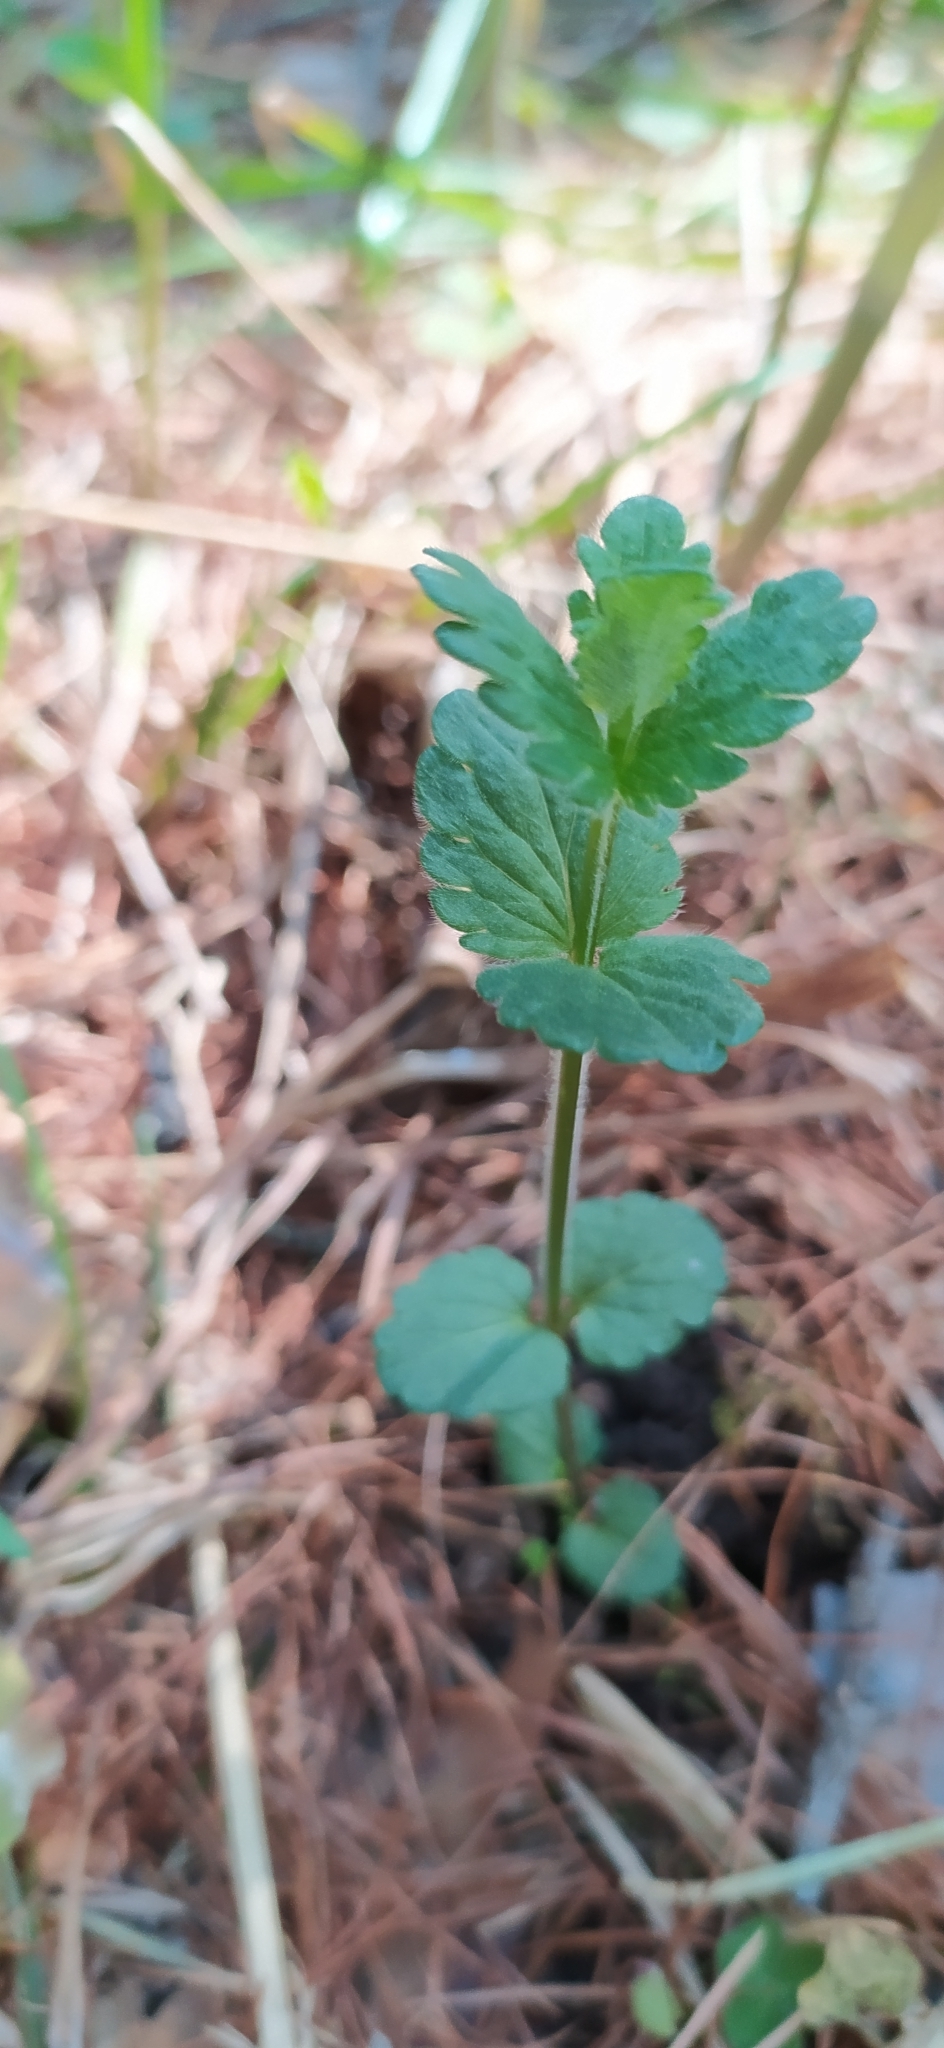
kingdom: Plantae
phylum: Tracheophyta
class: Magnoliopsida
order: Lamiales
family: Plantaginaceae
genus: Veronica
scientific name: Veronica chamaedrys
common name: Germander speedwell
